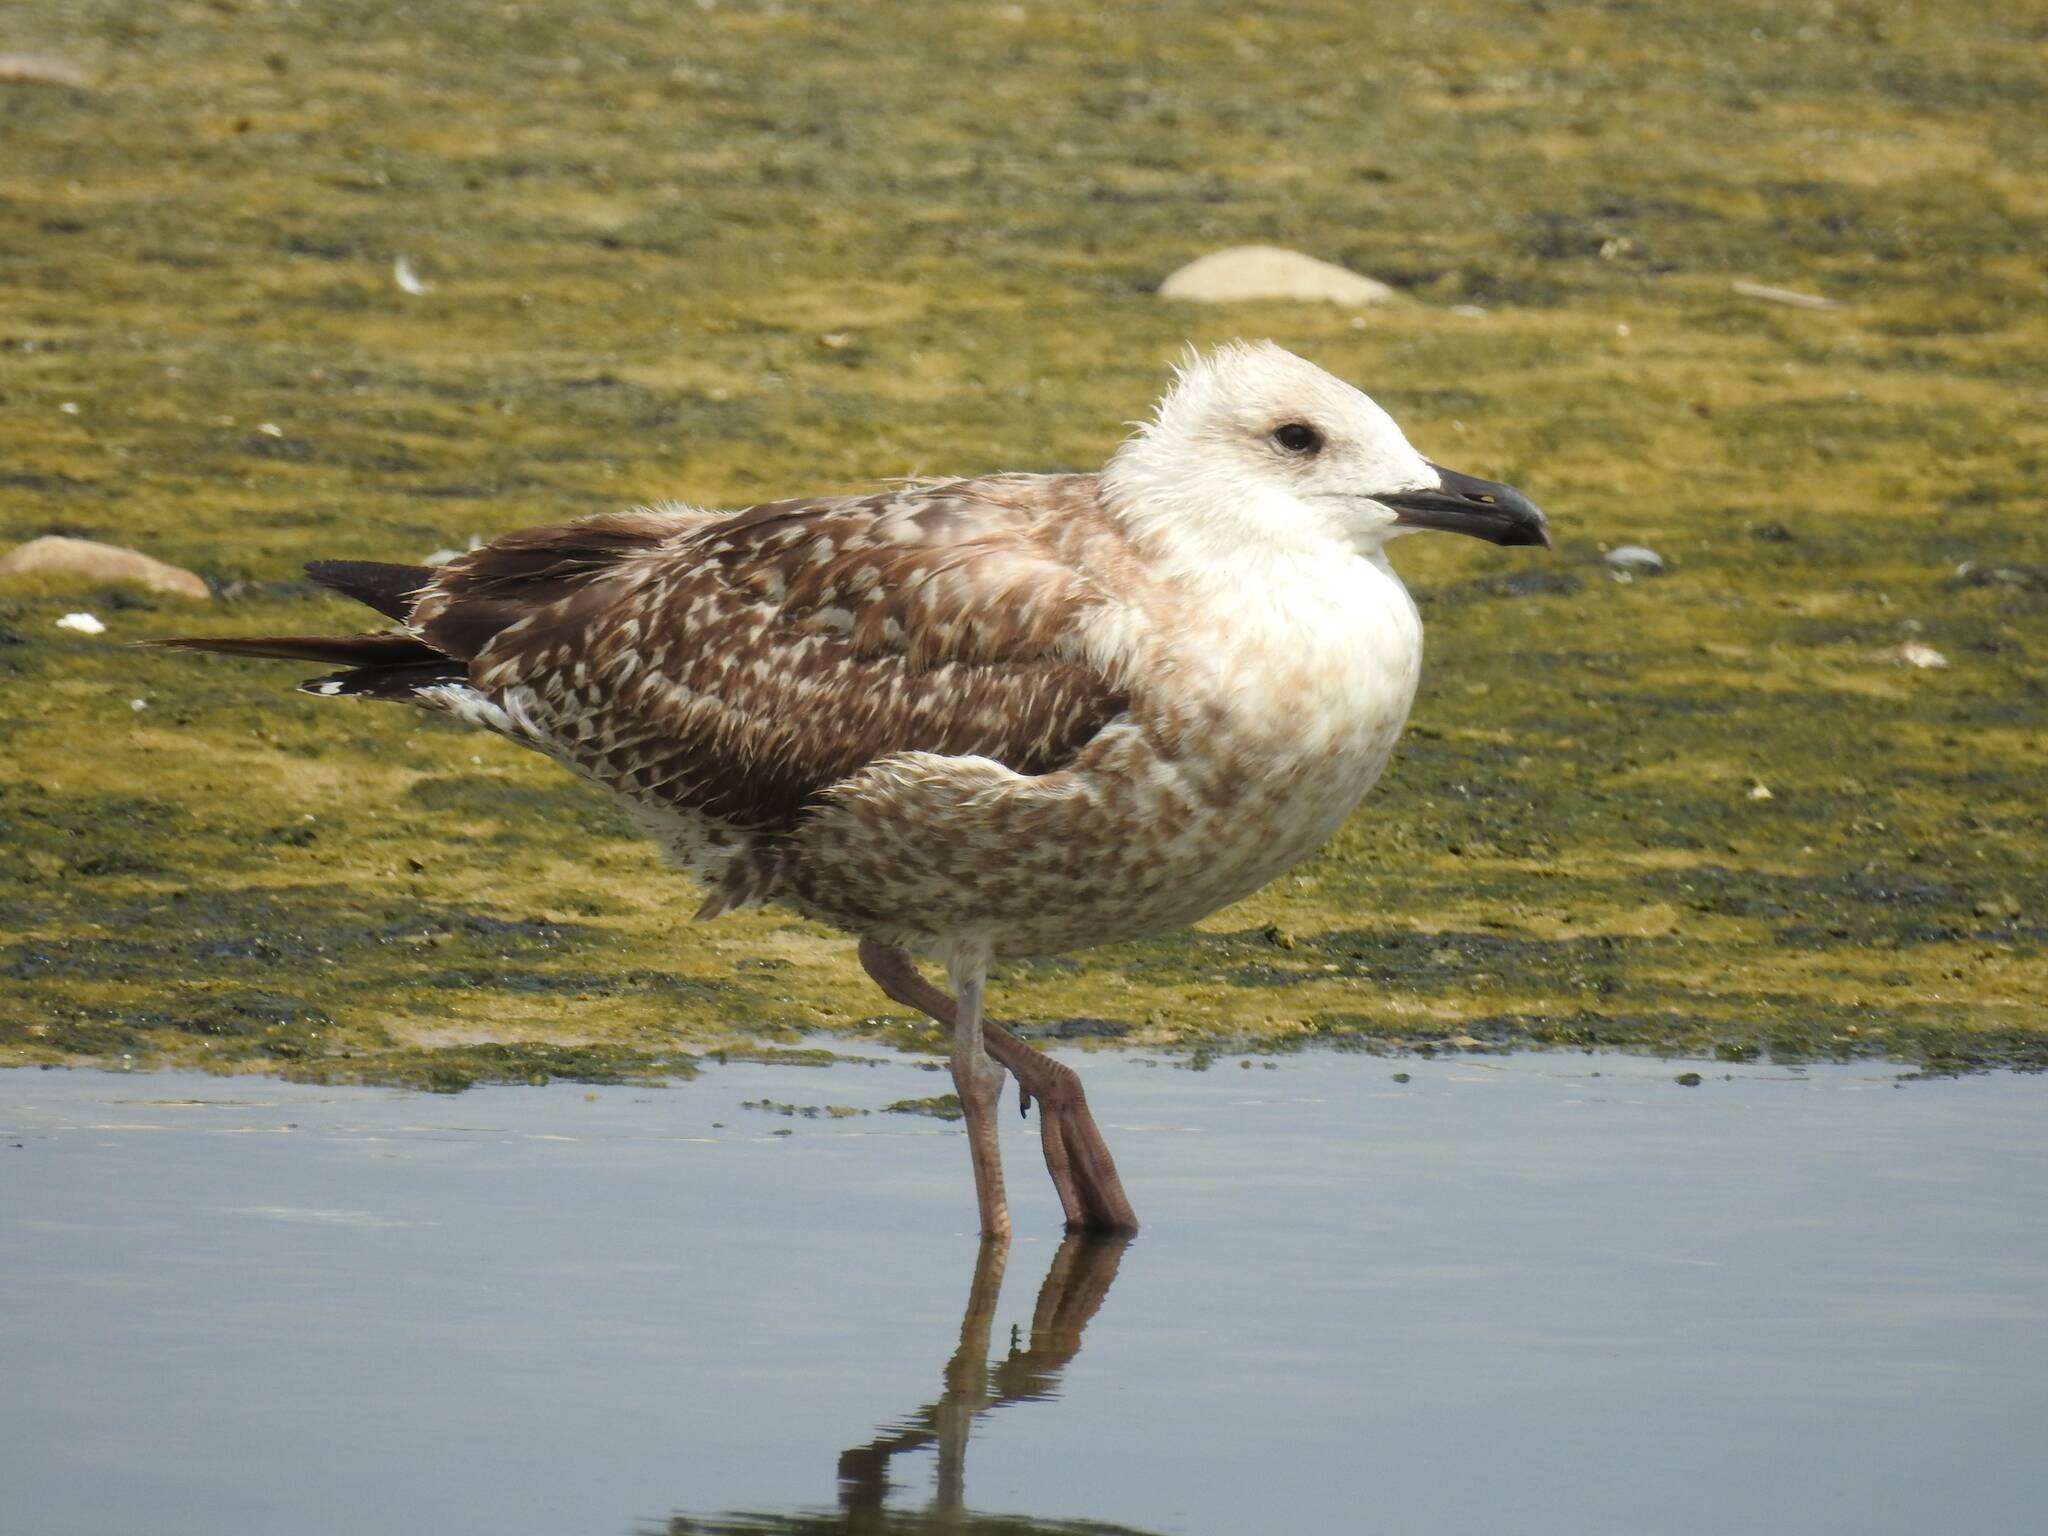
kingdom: Animalia
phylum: Chordata
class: Aves
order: Charadriiformes
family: Laridae
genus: Larus
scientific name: Larus michahellis
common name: Yellow-legged gull
